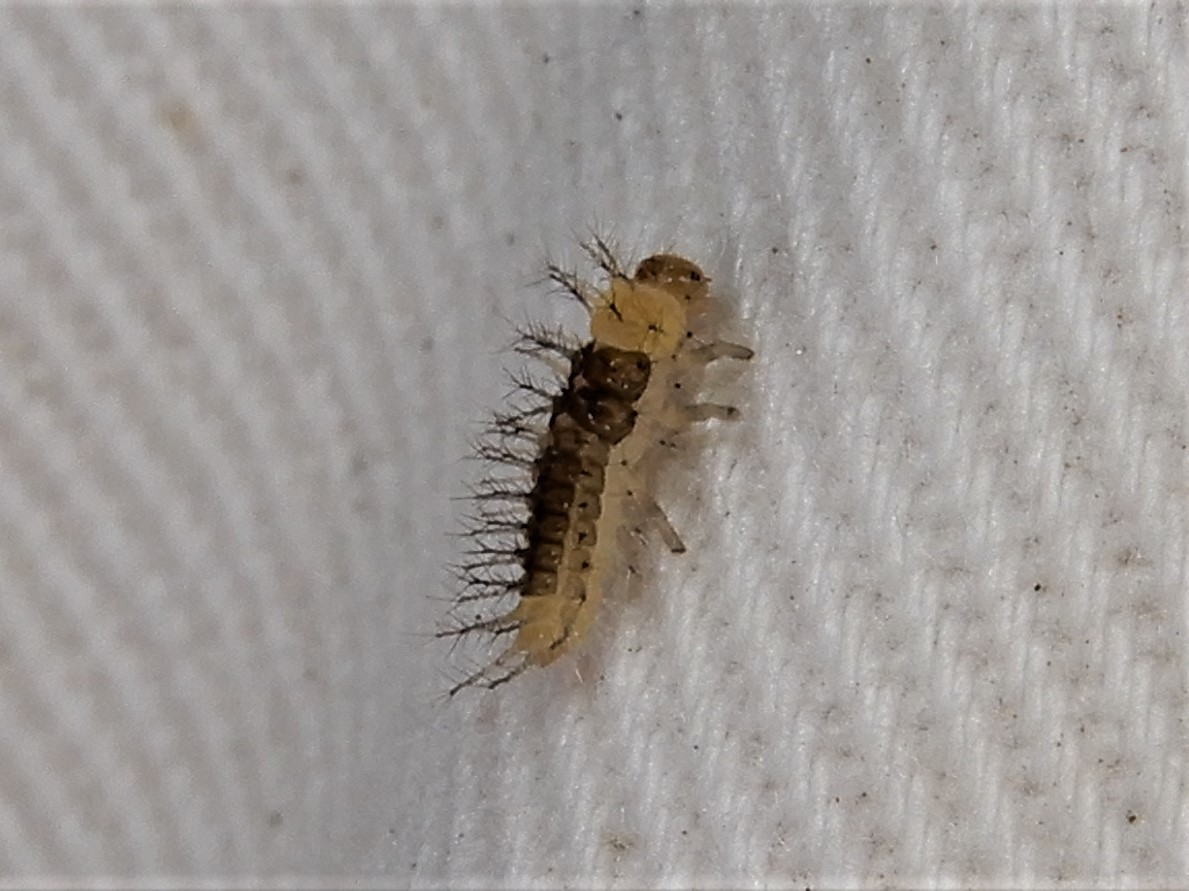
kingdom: Animalia
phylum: Arthropoda
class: Insecta
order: Coleoptera
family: Coccinellidae
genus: Halmus
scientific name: Halmus chalybeus
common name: Steel blue ladybird beetle
